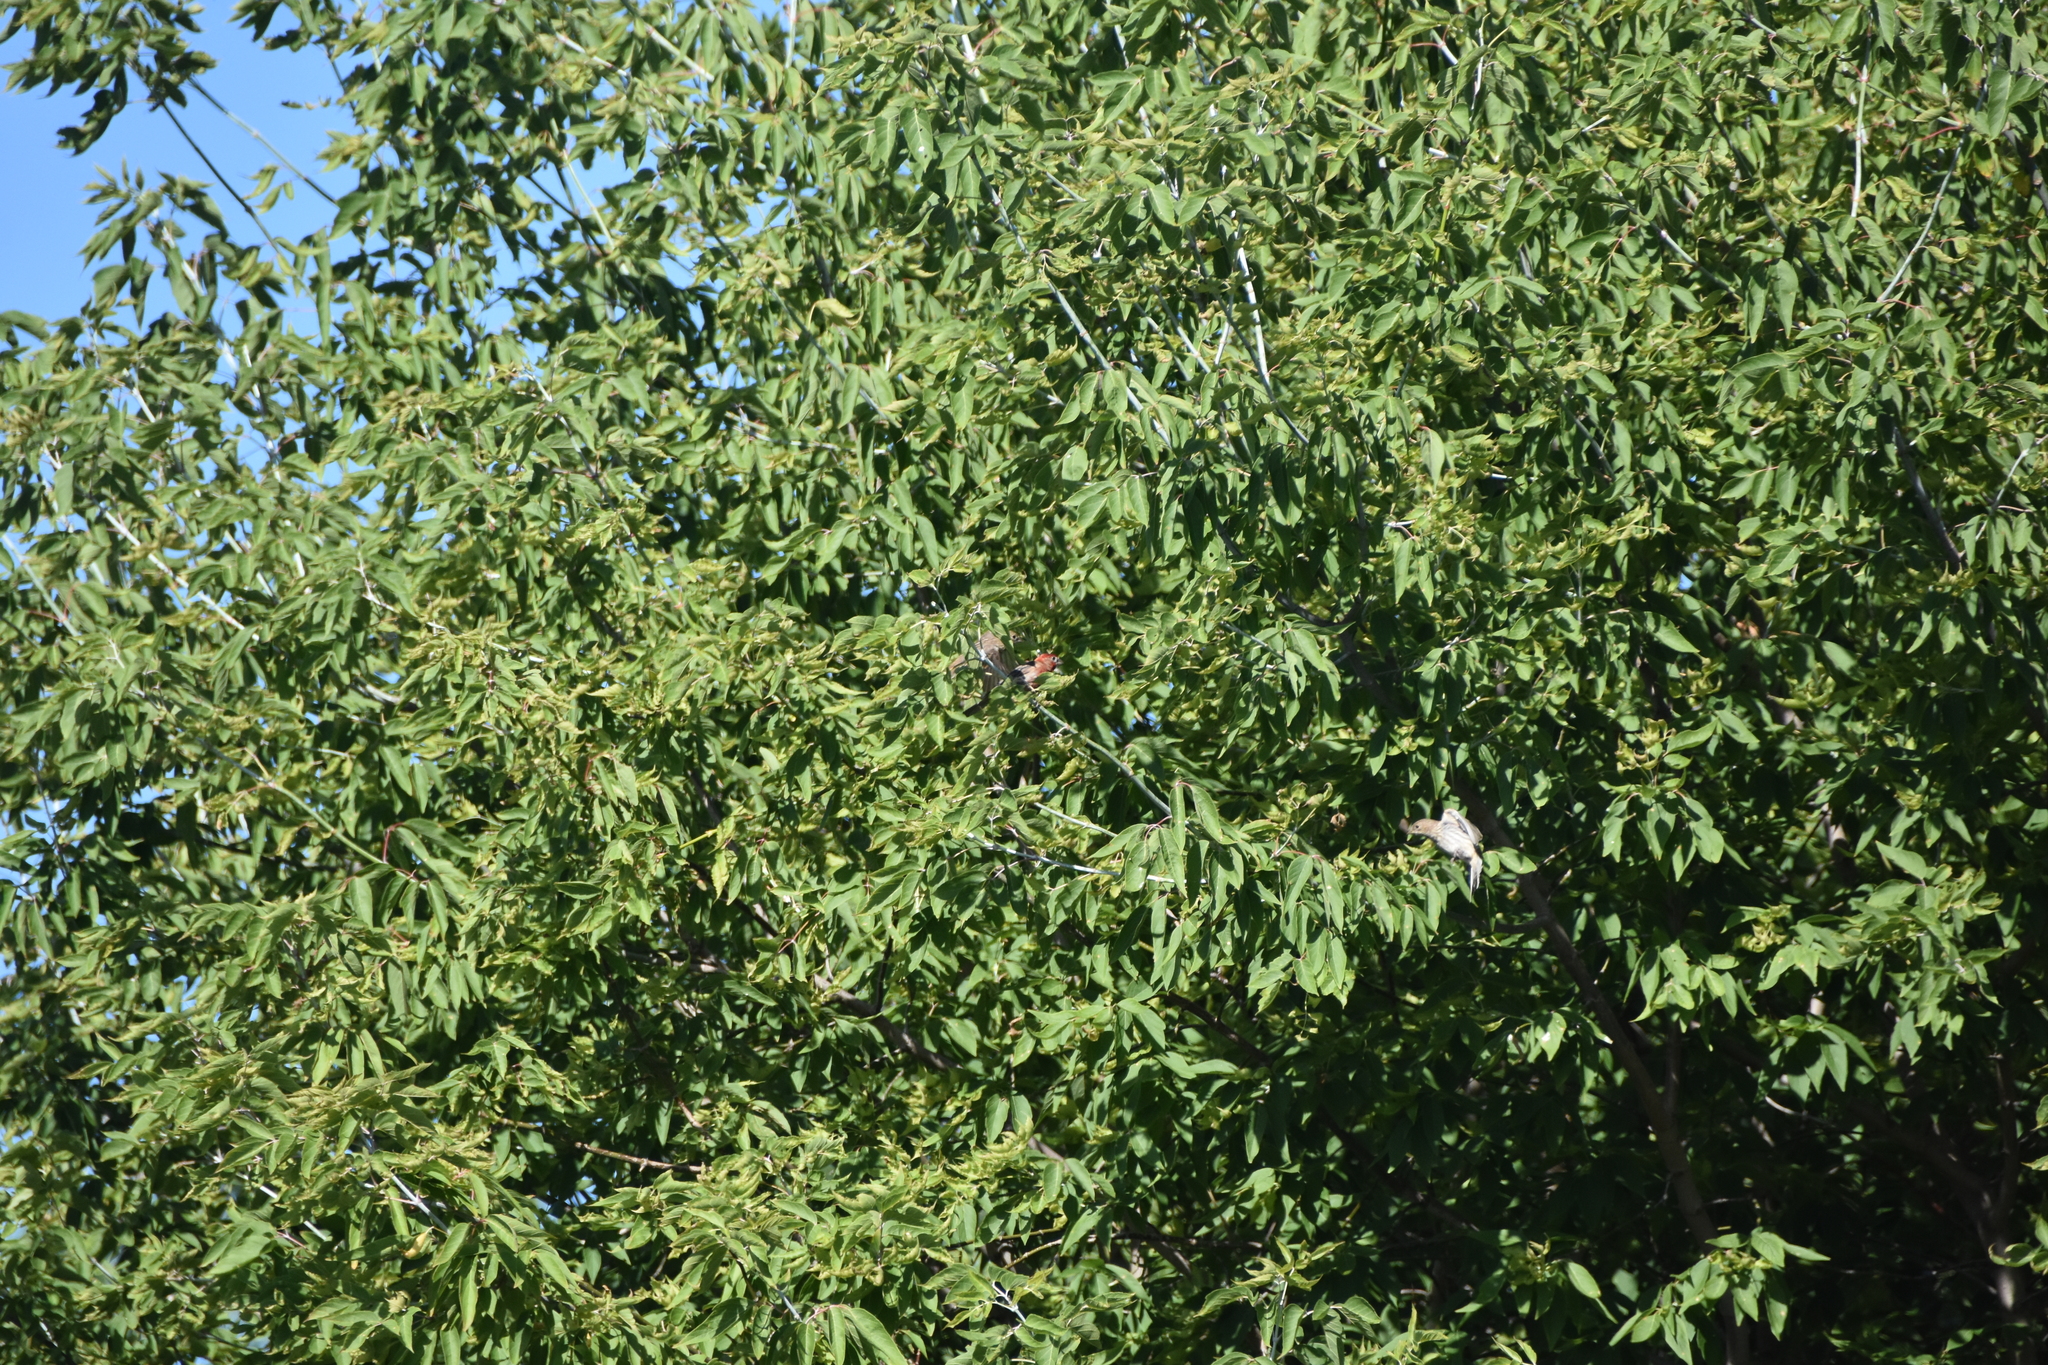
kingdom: Animalia
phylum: Chordata
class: Aves
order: Passeriformes
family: Fringillidae
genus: Haemorhous
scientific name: Haemorhous mexicanus
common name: House finch
